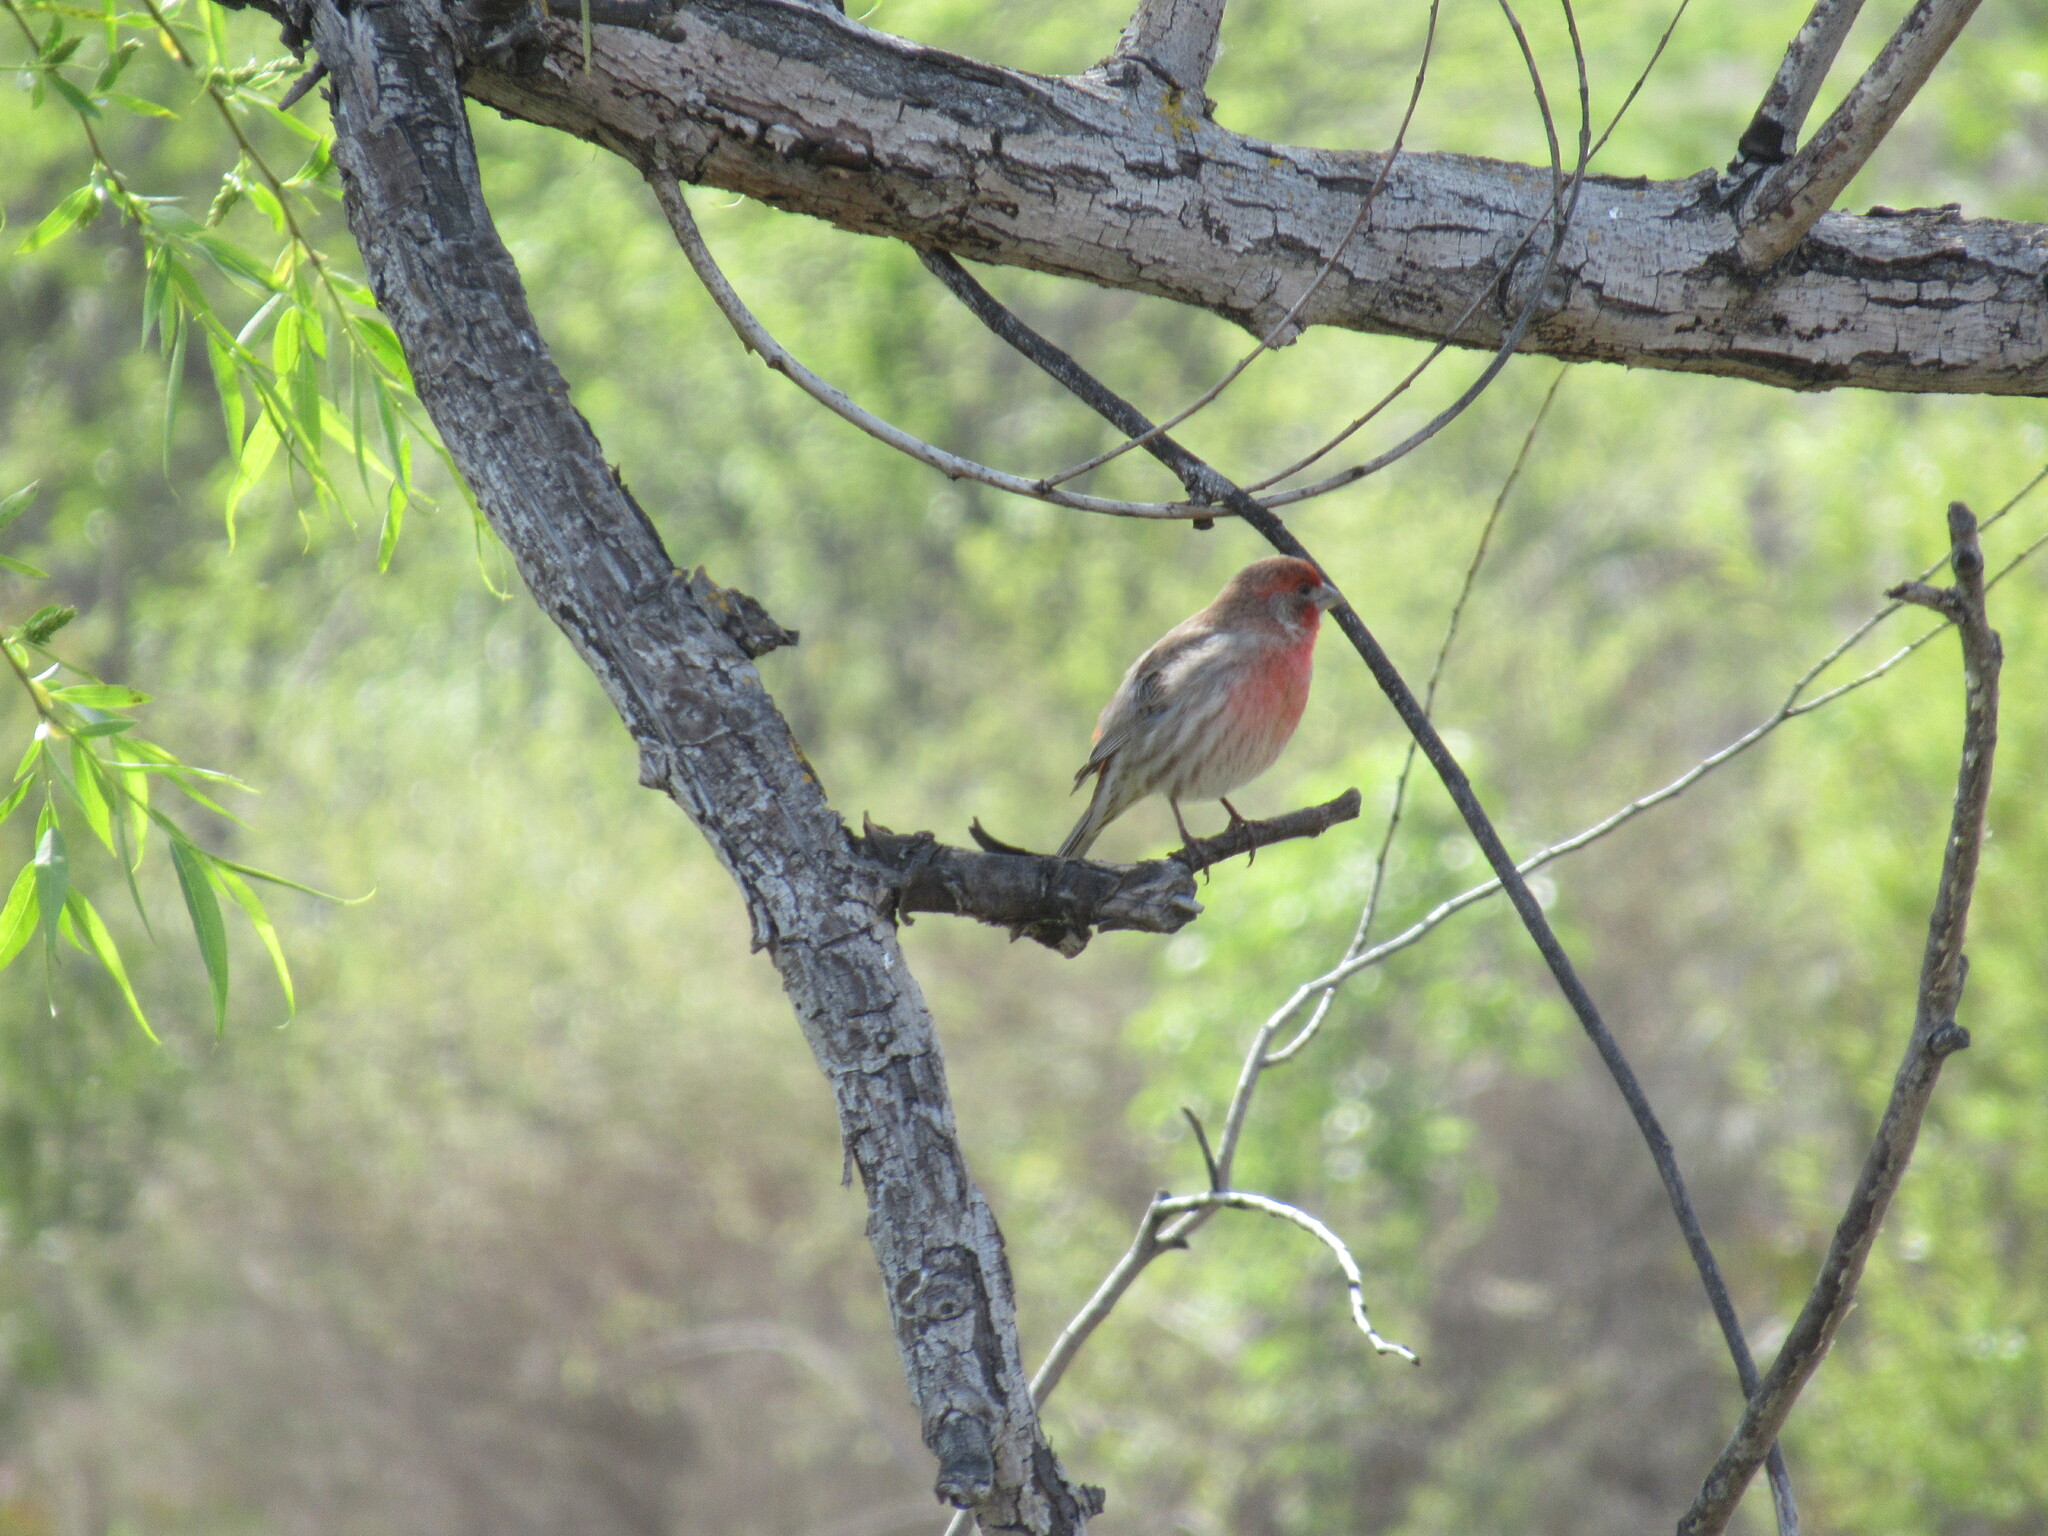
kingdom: Animalia
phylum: Chordata
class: Aves
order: Passeriformes
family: Fringillidae
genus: Haemorhous
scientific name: Haemorhous mexicanus
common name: House finch
